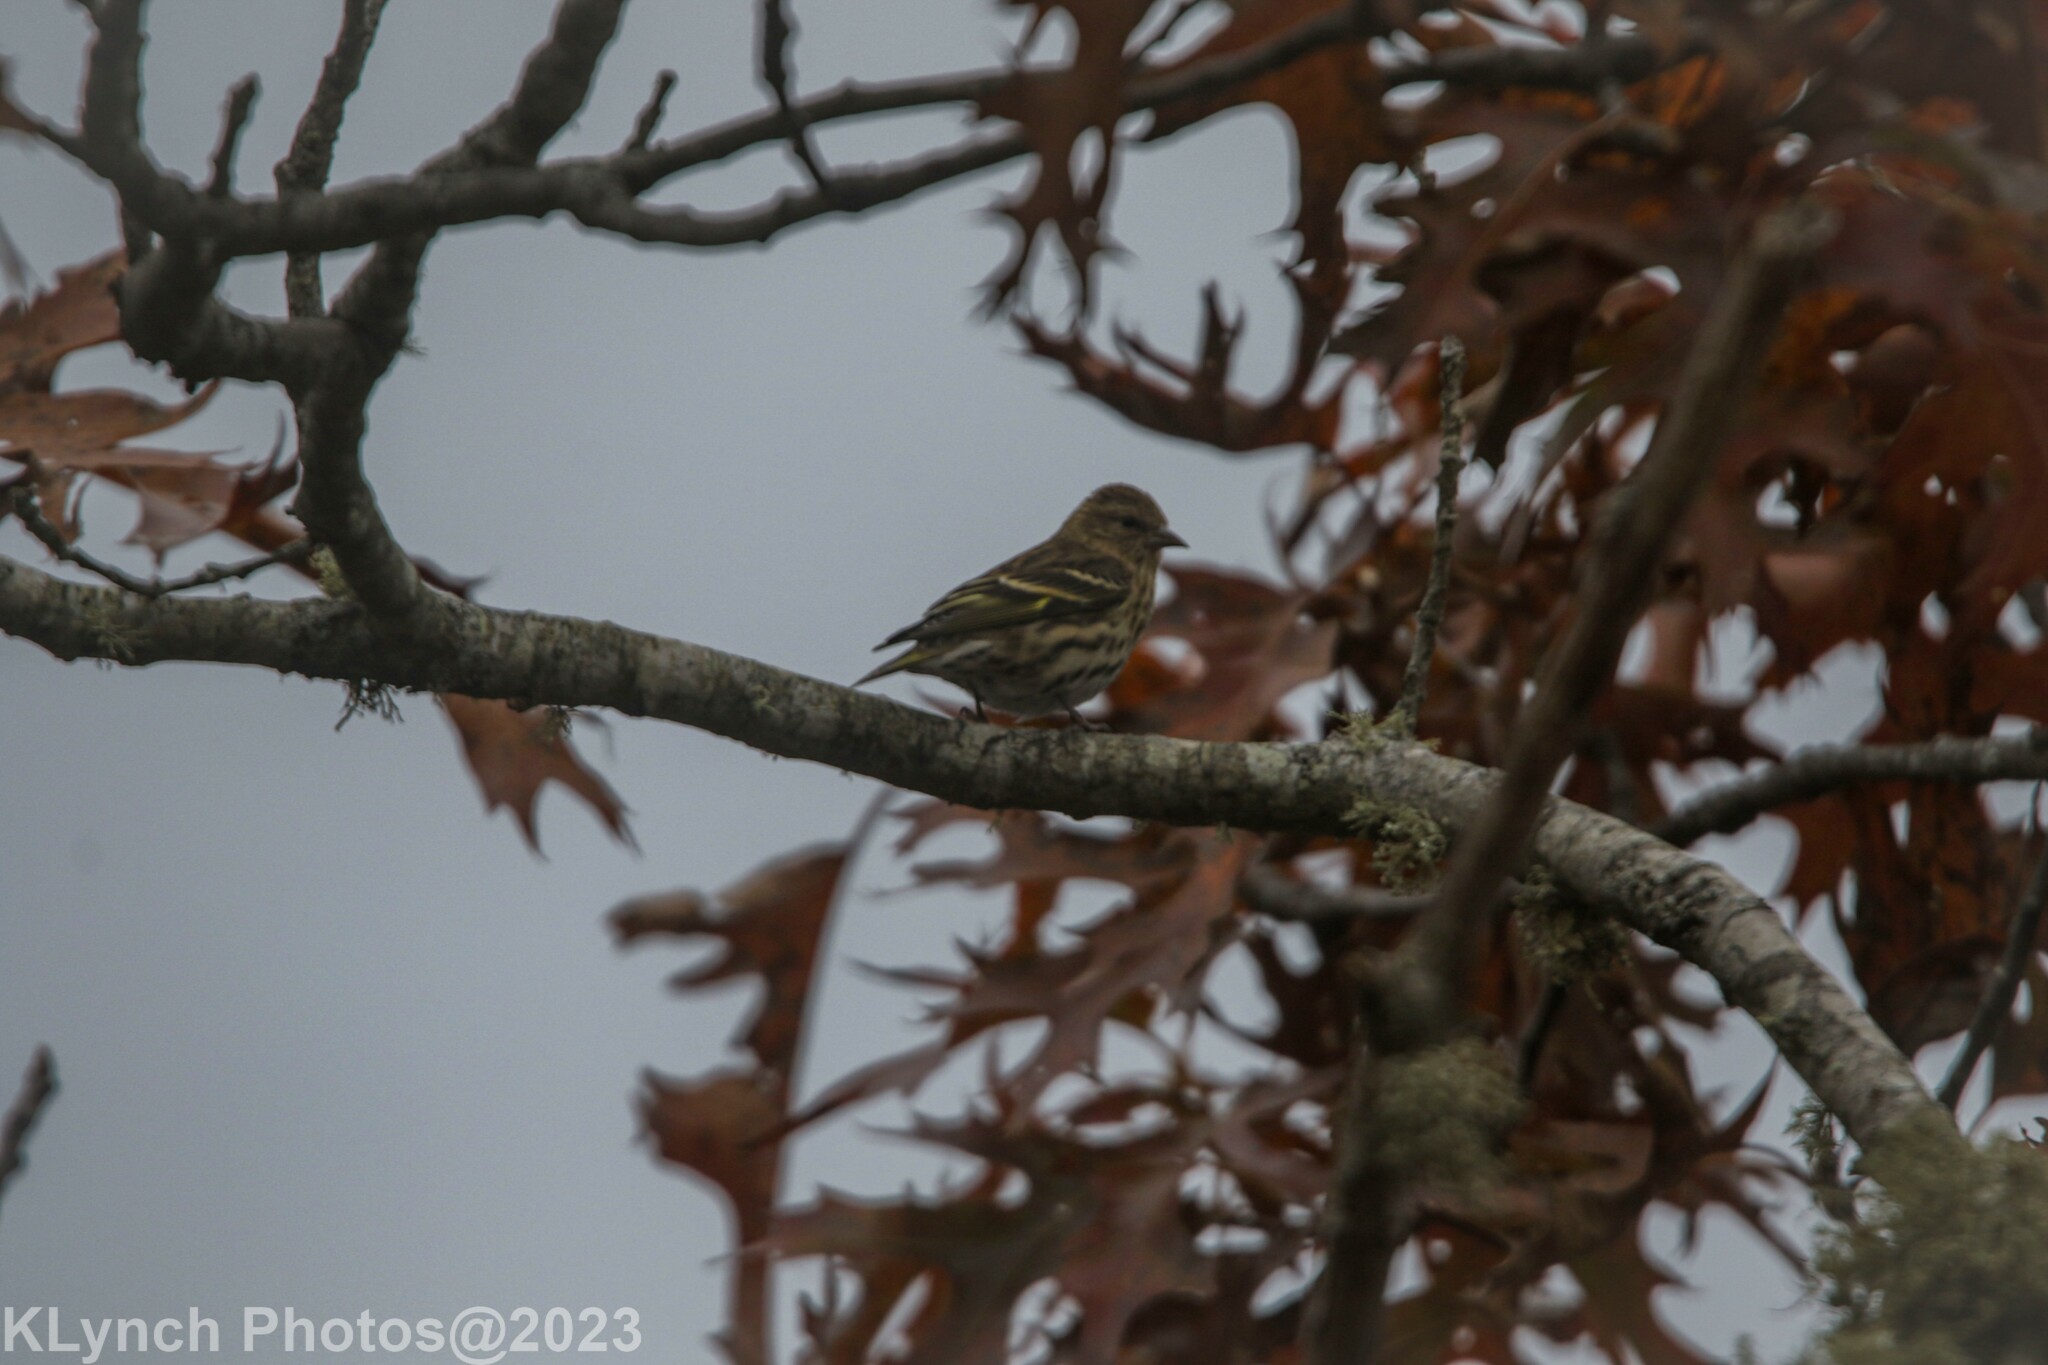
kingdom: Animalia
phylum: Chordata
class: Aves
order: Passeriformes
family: Fringillidae
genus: Spinus
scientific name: Spinus pinus
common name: Pine siskin
